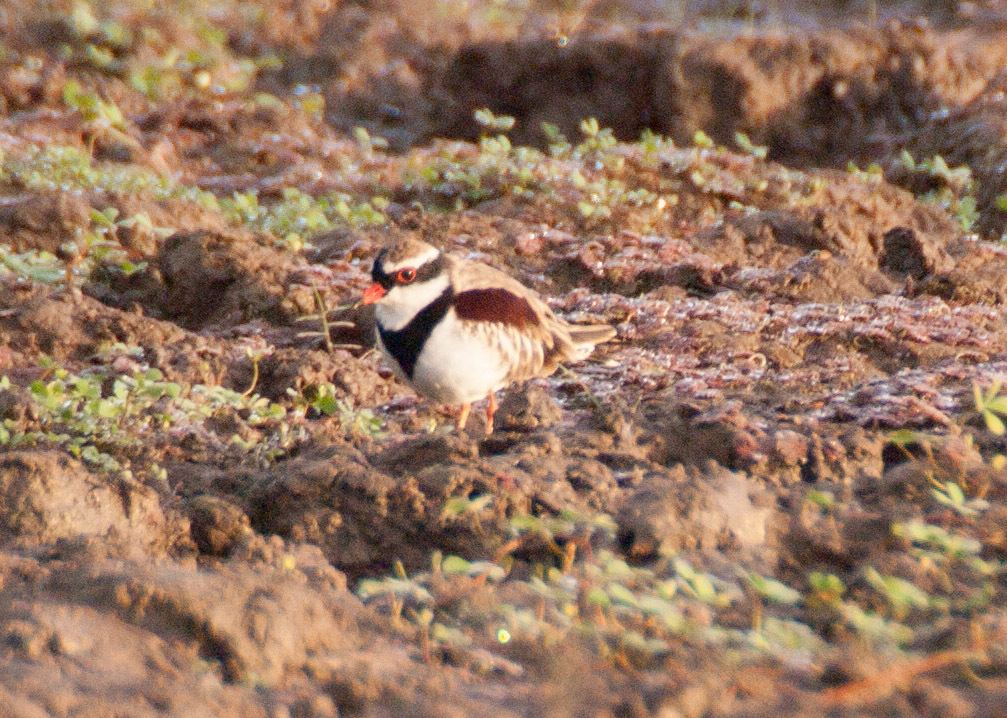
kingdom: Animalia
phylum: Chordata
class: Aves
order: Charadriiformes
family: Charadriidae
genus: Elseyornis
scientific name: Elseyornis melanops
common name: Black-fronted dotterel
